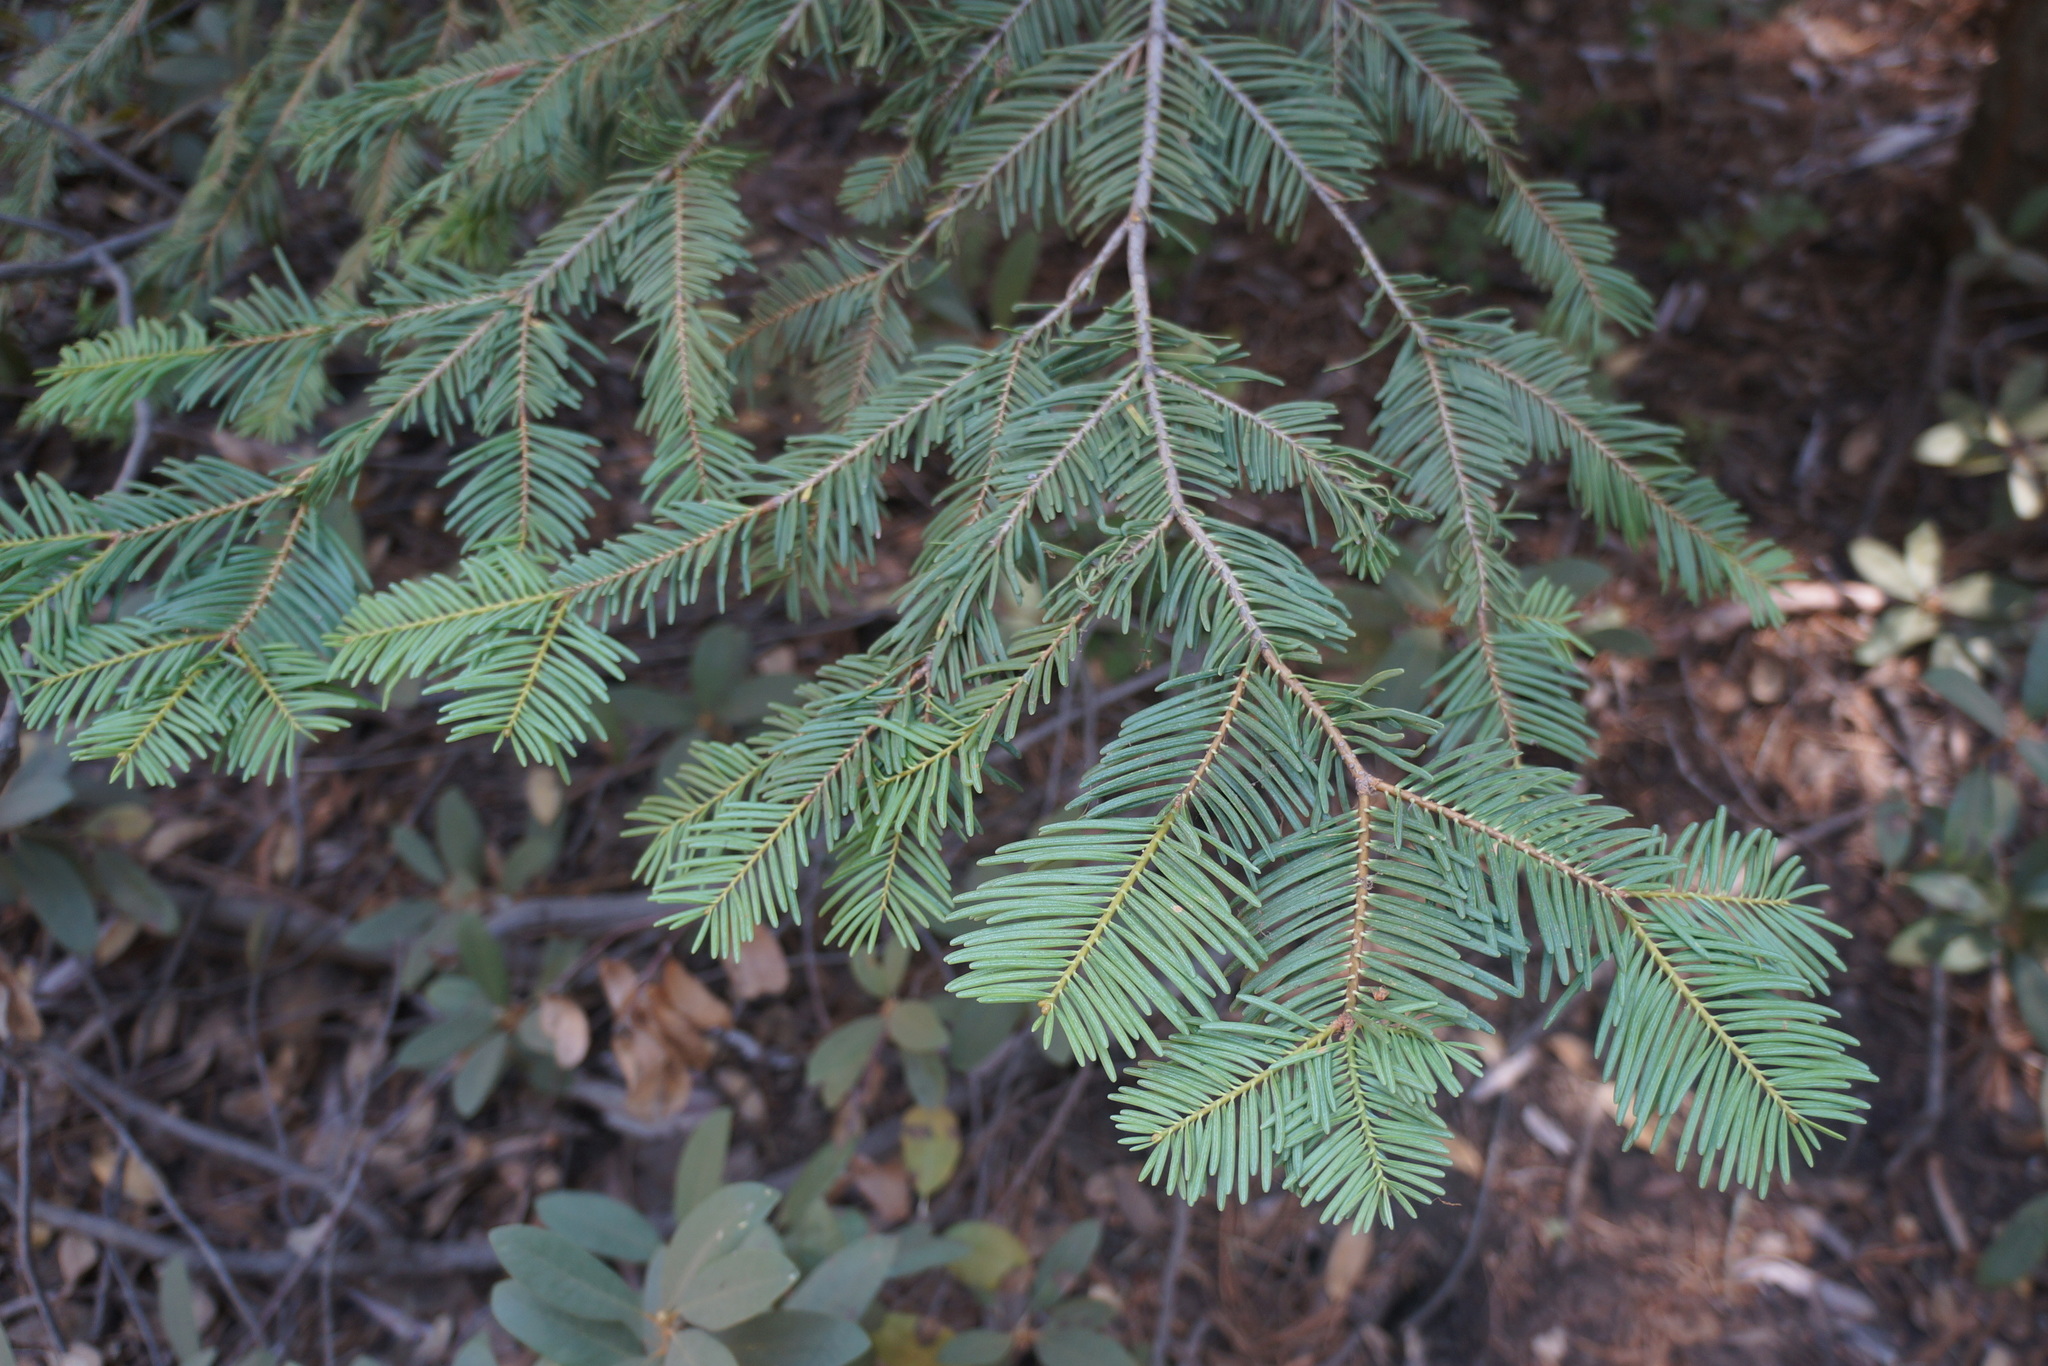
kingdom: Plantae
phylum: Tracheophyta
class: Pinopsida
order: Pinales
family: Pinaceae
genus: Abies
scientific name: Abies concolor
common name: Colorado fir
